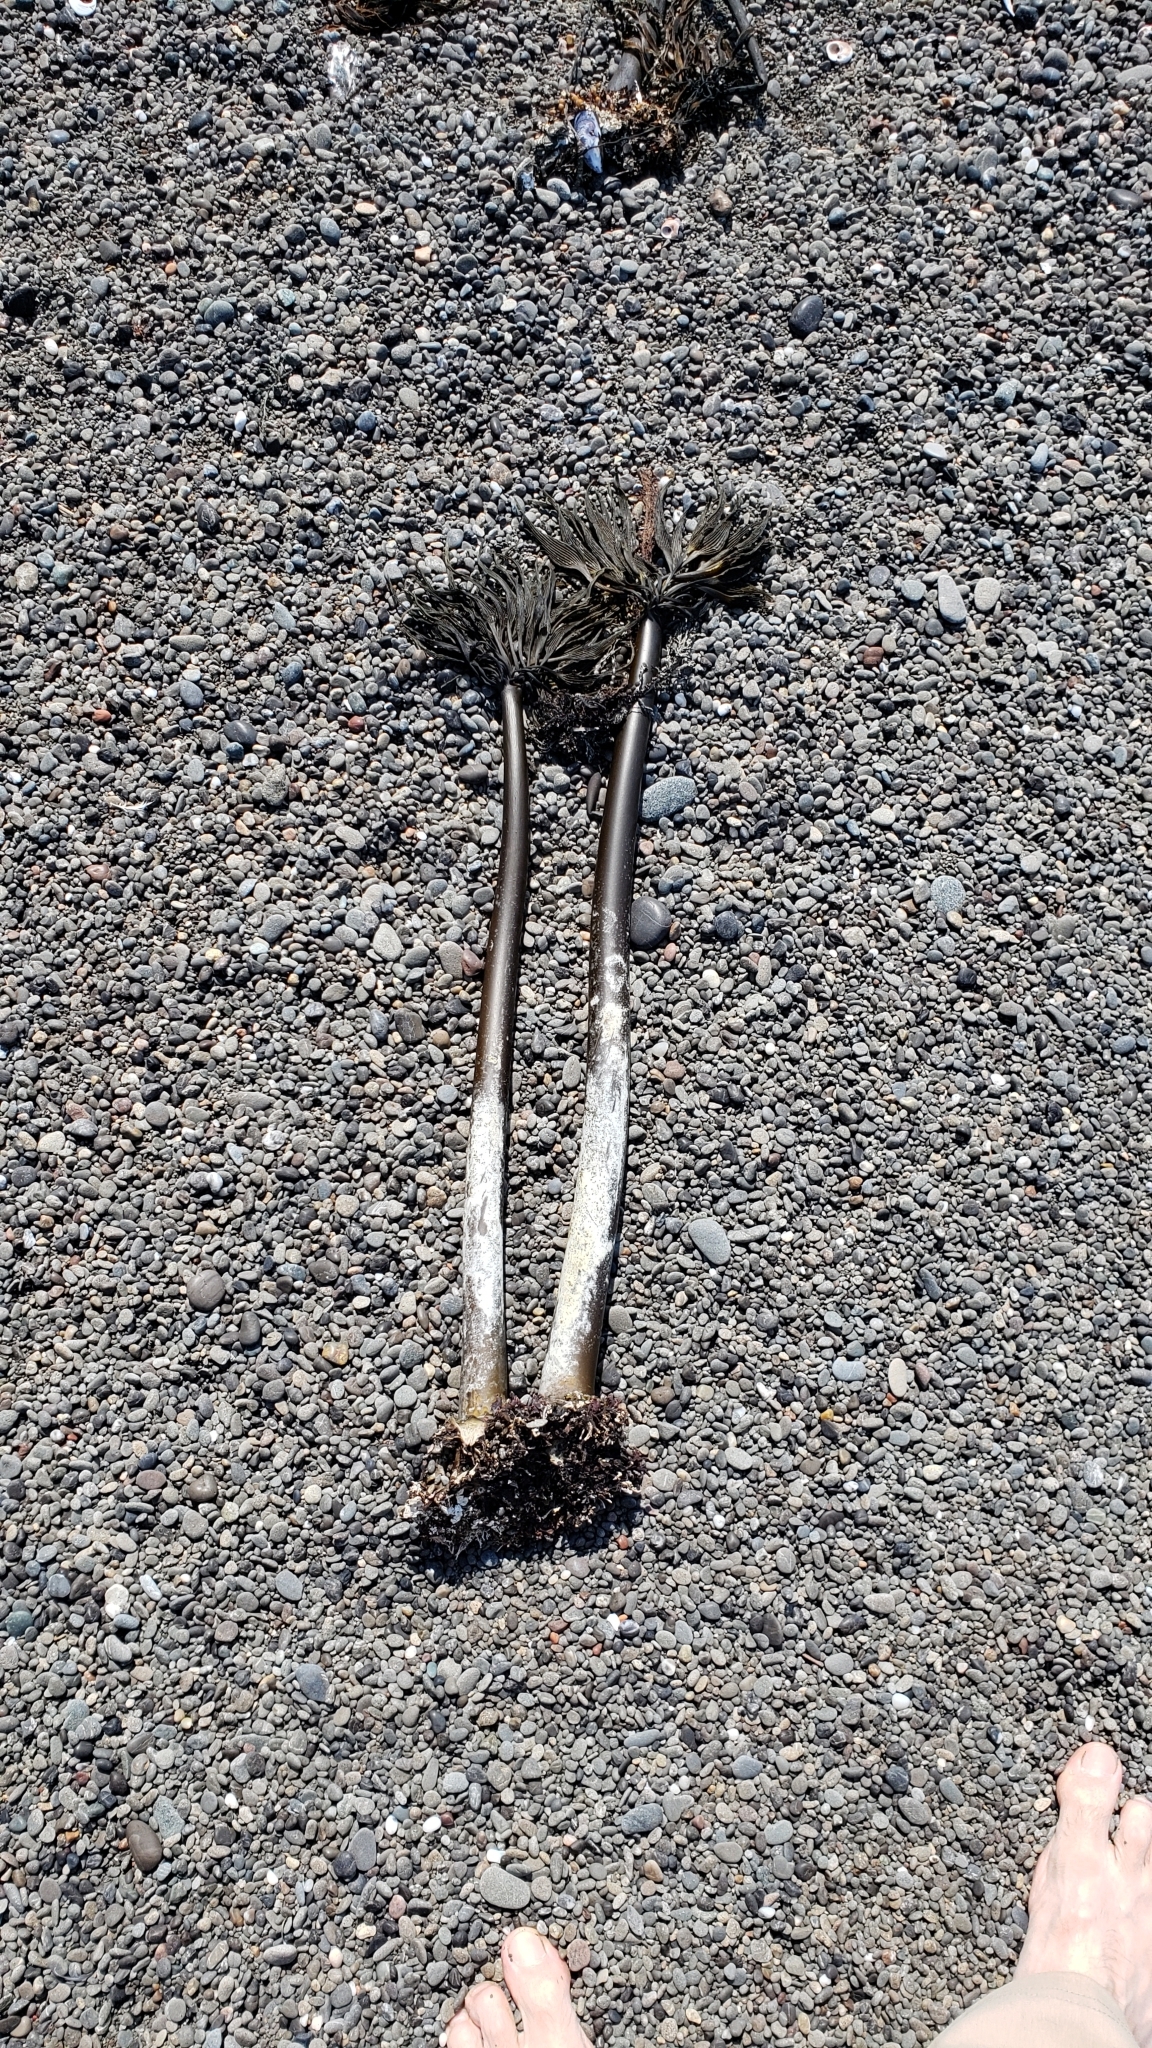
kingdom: Chromista
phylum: Ochrophyta
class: Phaeophyceae
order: Laminariales
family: Laminariaceae
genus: Postelsia
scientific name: Postelsia palmiformis
